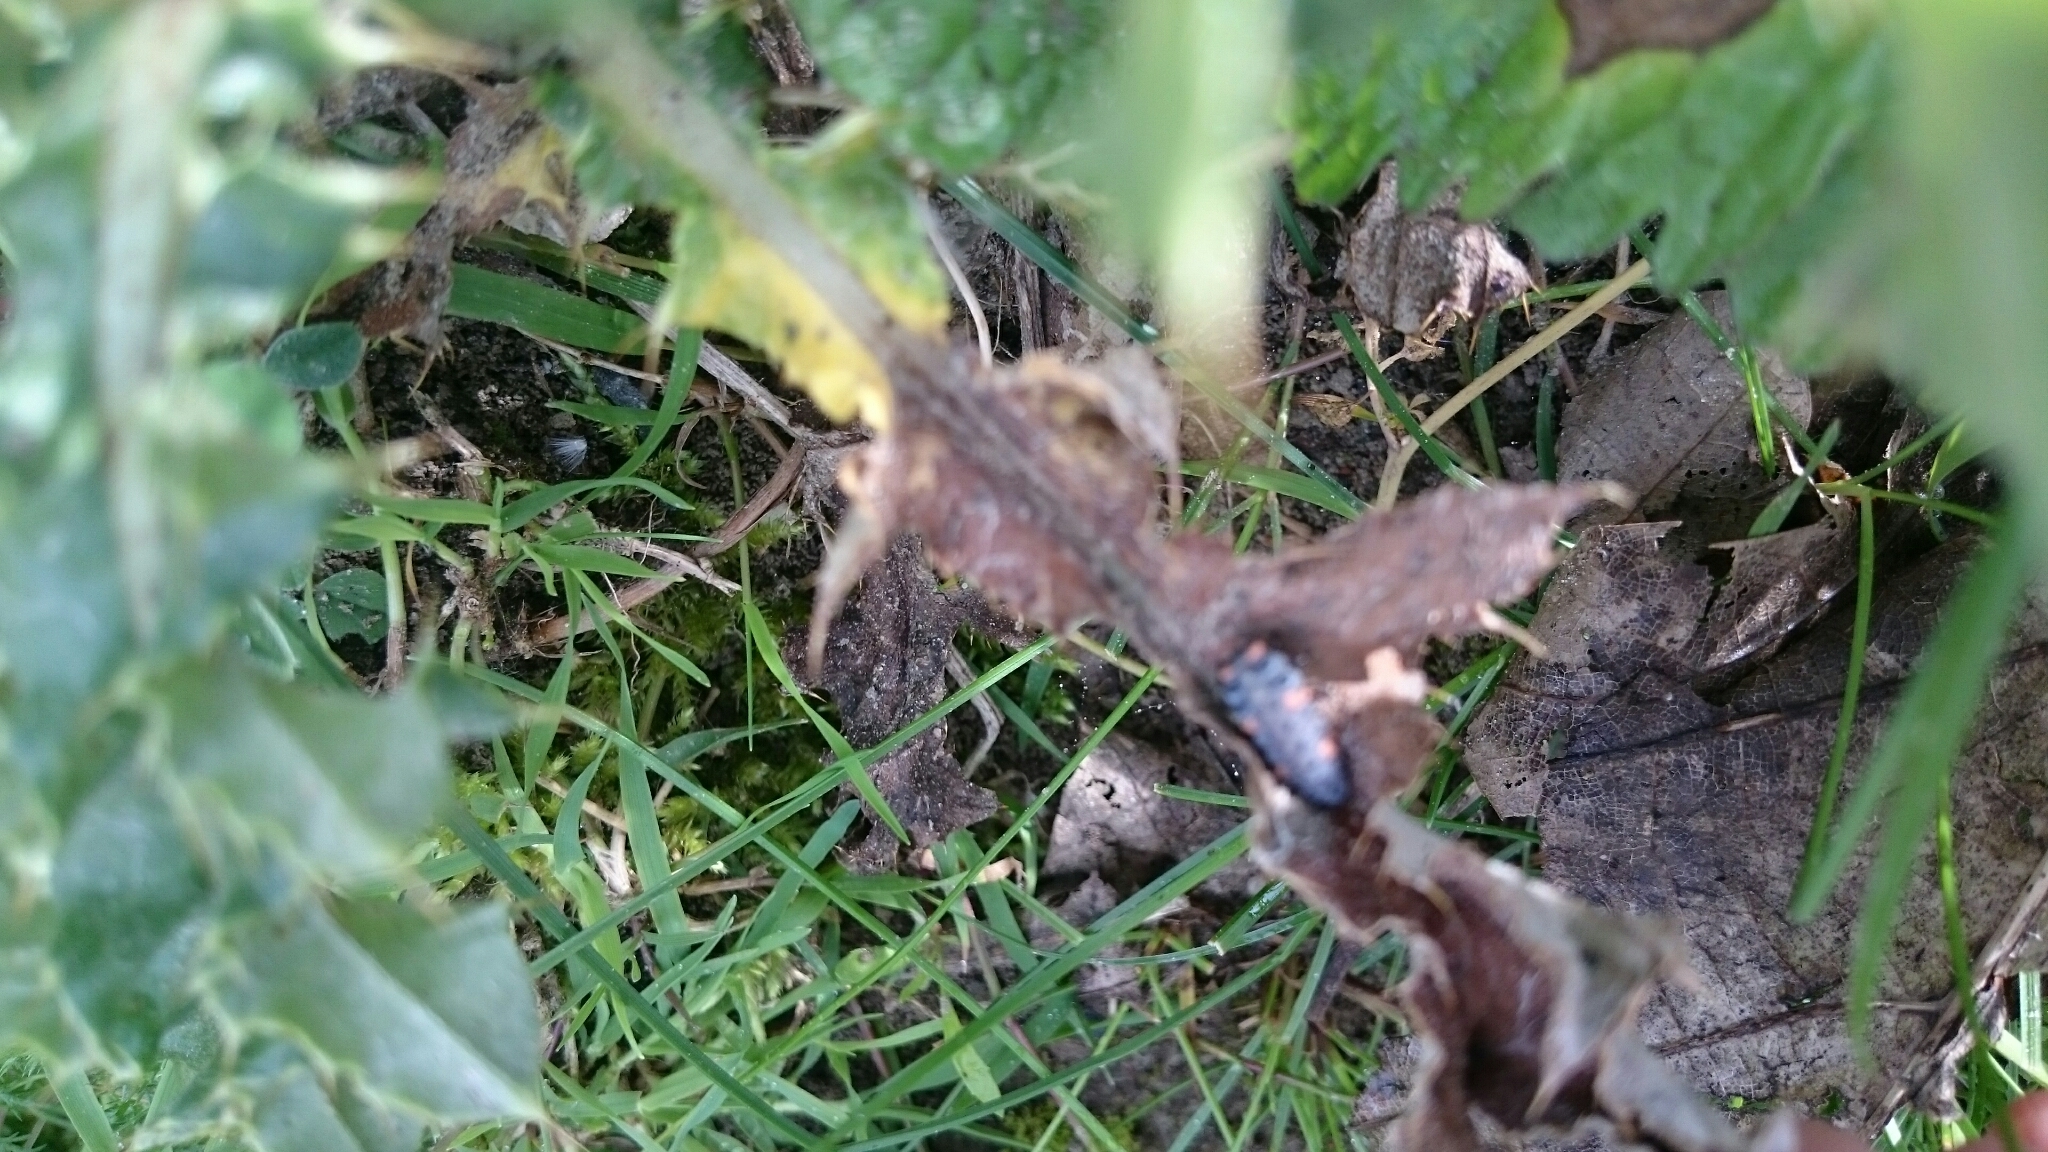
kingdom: Animalia
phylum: Arthropoda
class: Insecta
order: Coleoptera
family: Coccinellidae
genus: Coccinella
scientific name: Coccinella septempunctata
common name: Sevenspotted lady beetle
